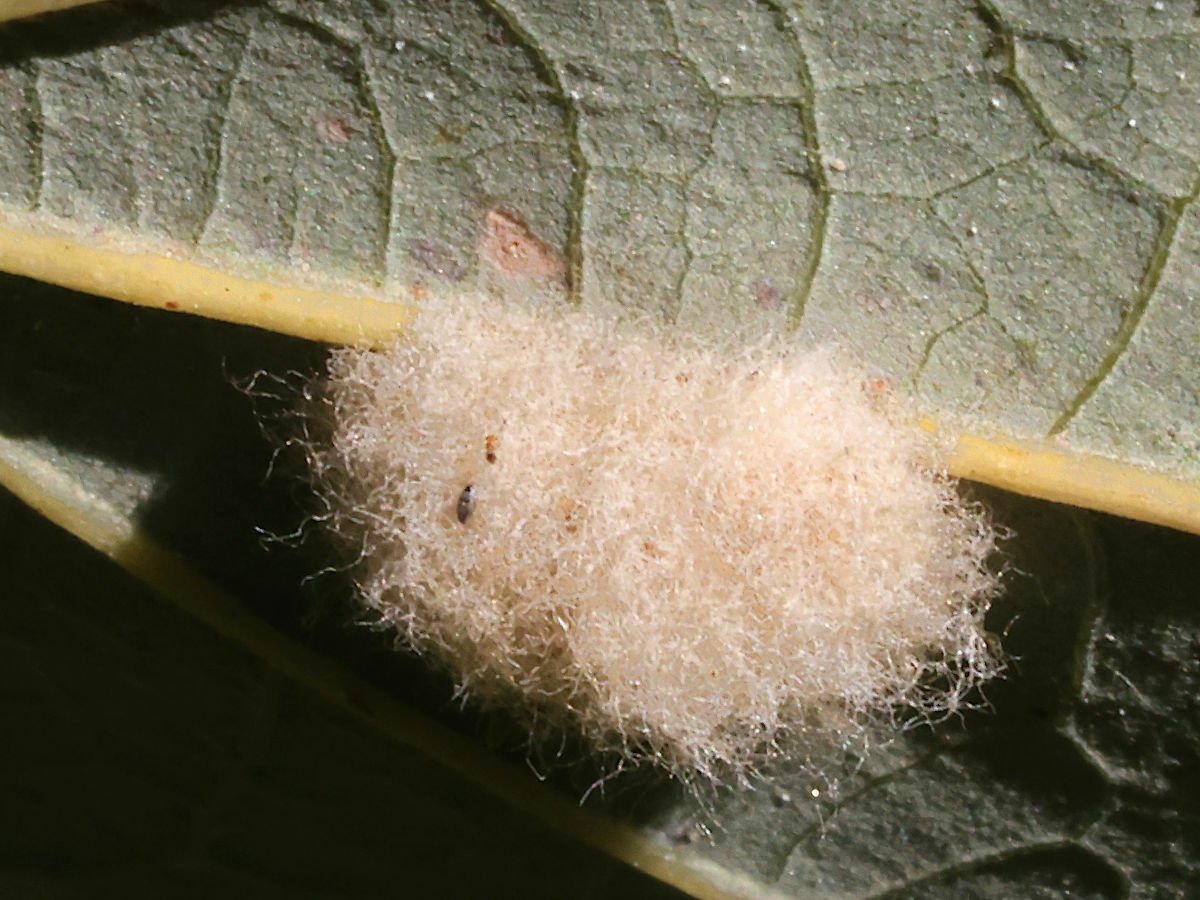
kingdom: Animalia
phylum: Arthropoda
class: Insecta
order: Hymenoptera
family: Cynipidae
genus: Andricus
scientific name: Andricus Druon ignotum
